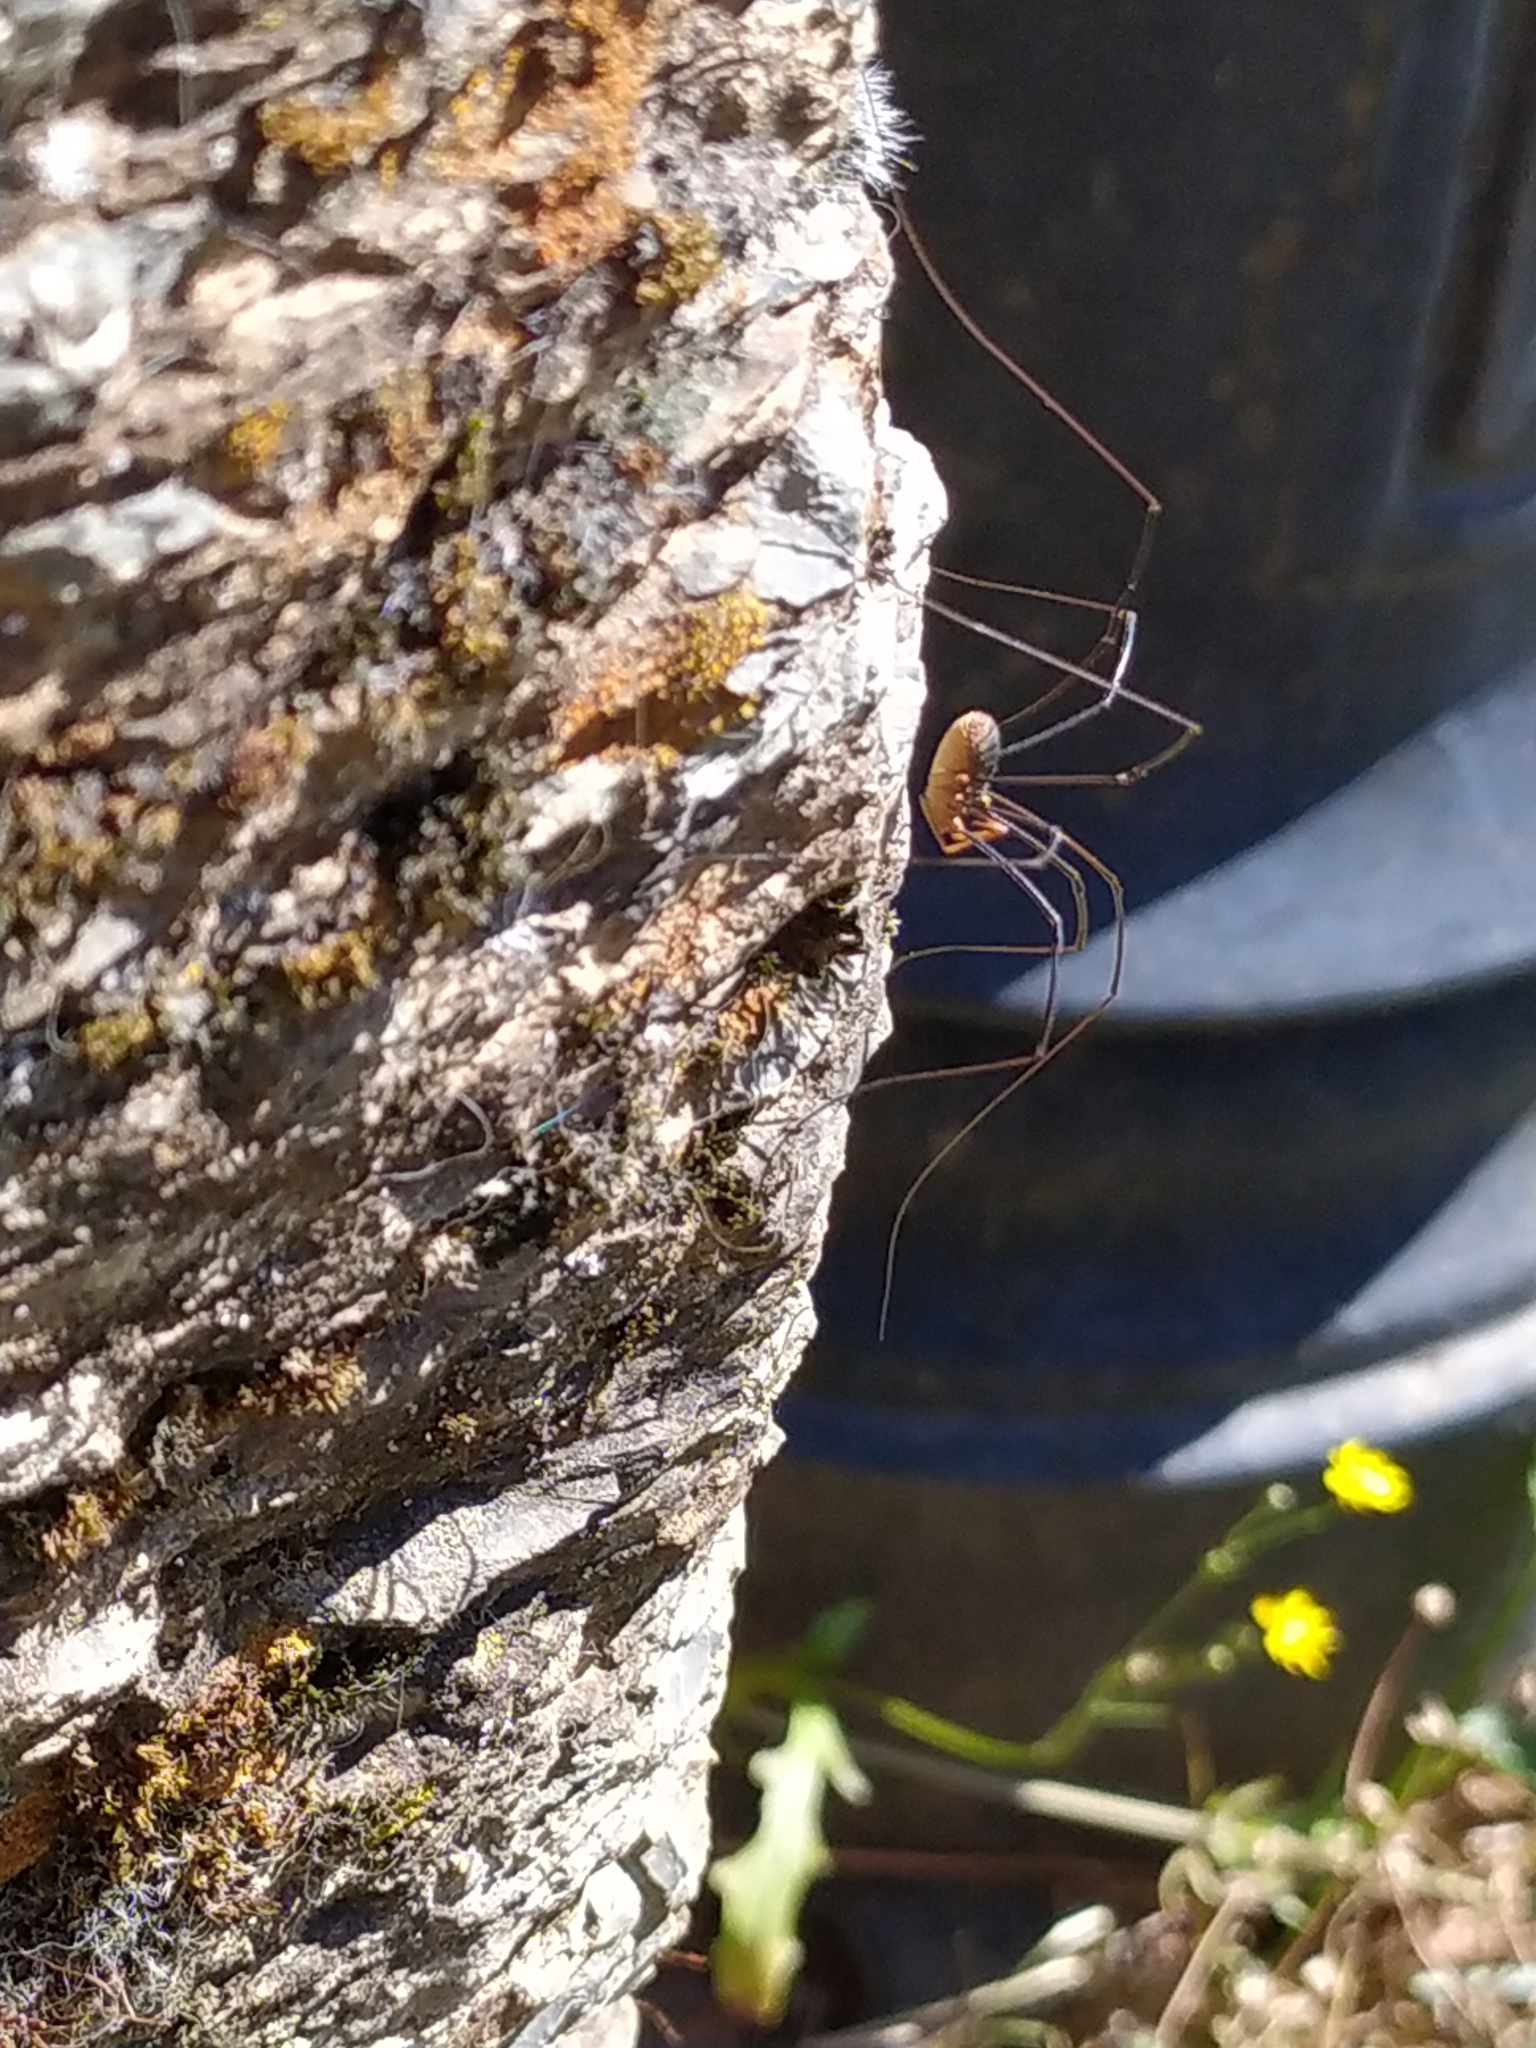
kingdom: Animalia
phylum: Arthropoda
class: Arachnida
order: Opiliones
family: Phalangiidae
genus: Phalangium
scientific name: Phalangium opilio
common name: Daddy longleg
